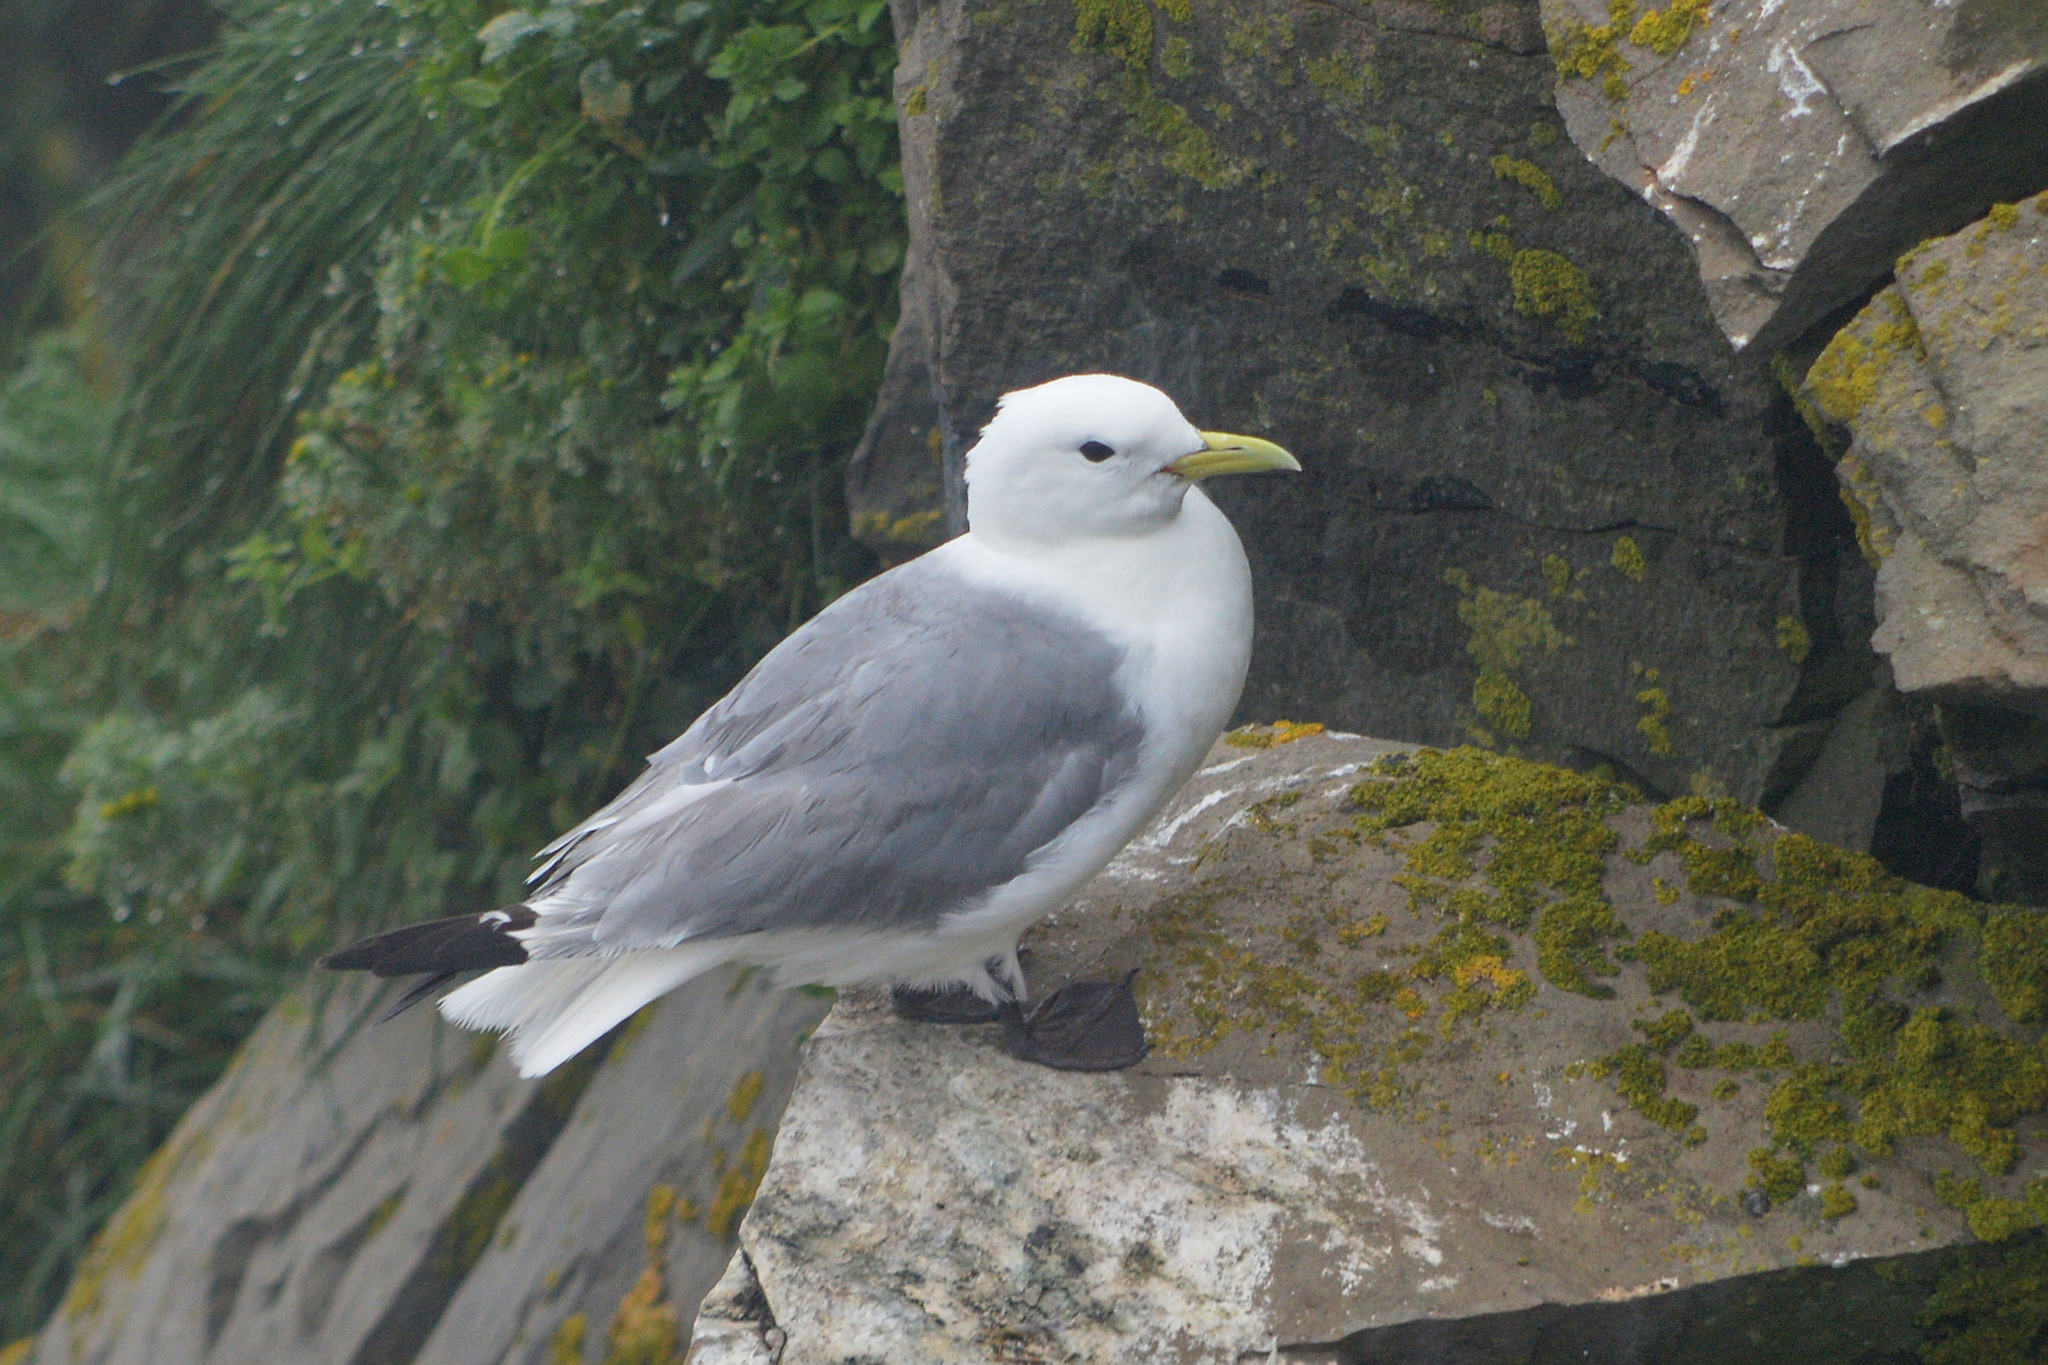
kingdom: Animalia
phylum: Chordata
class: Aves
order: Charadriiformes
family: Laridae
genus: Rissa
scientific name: Rissa tridactyla
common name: Black-legged kittiwake
